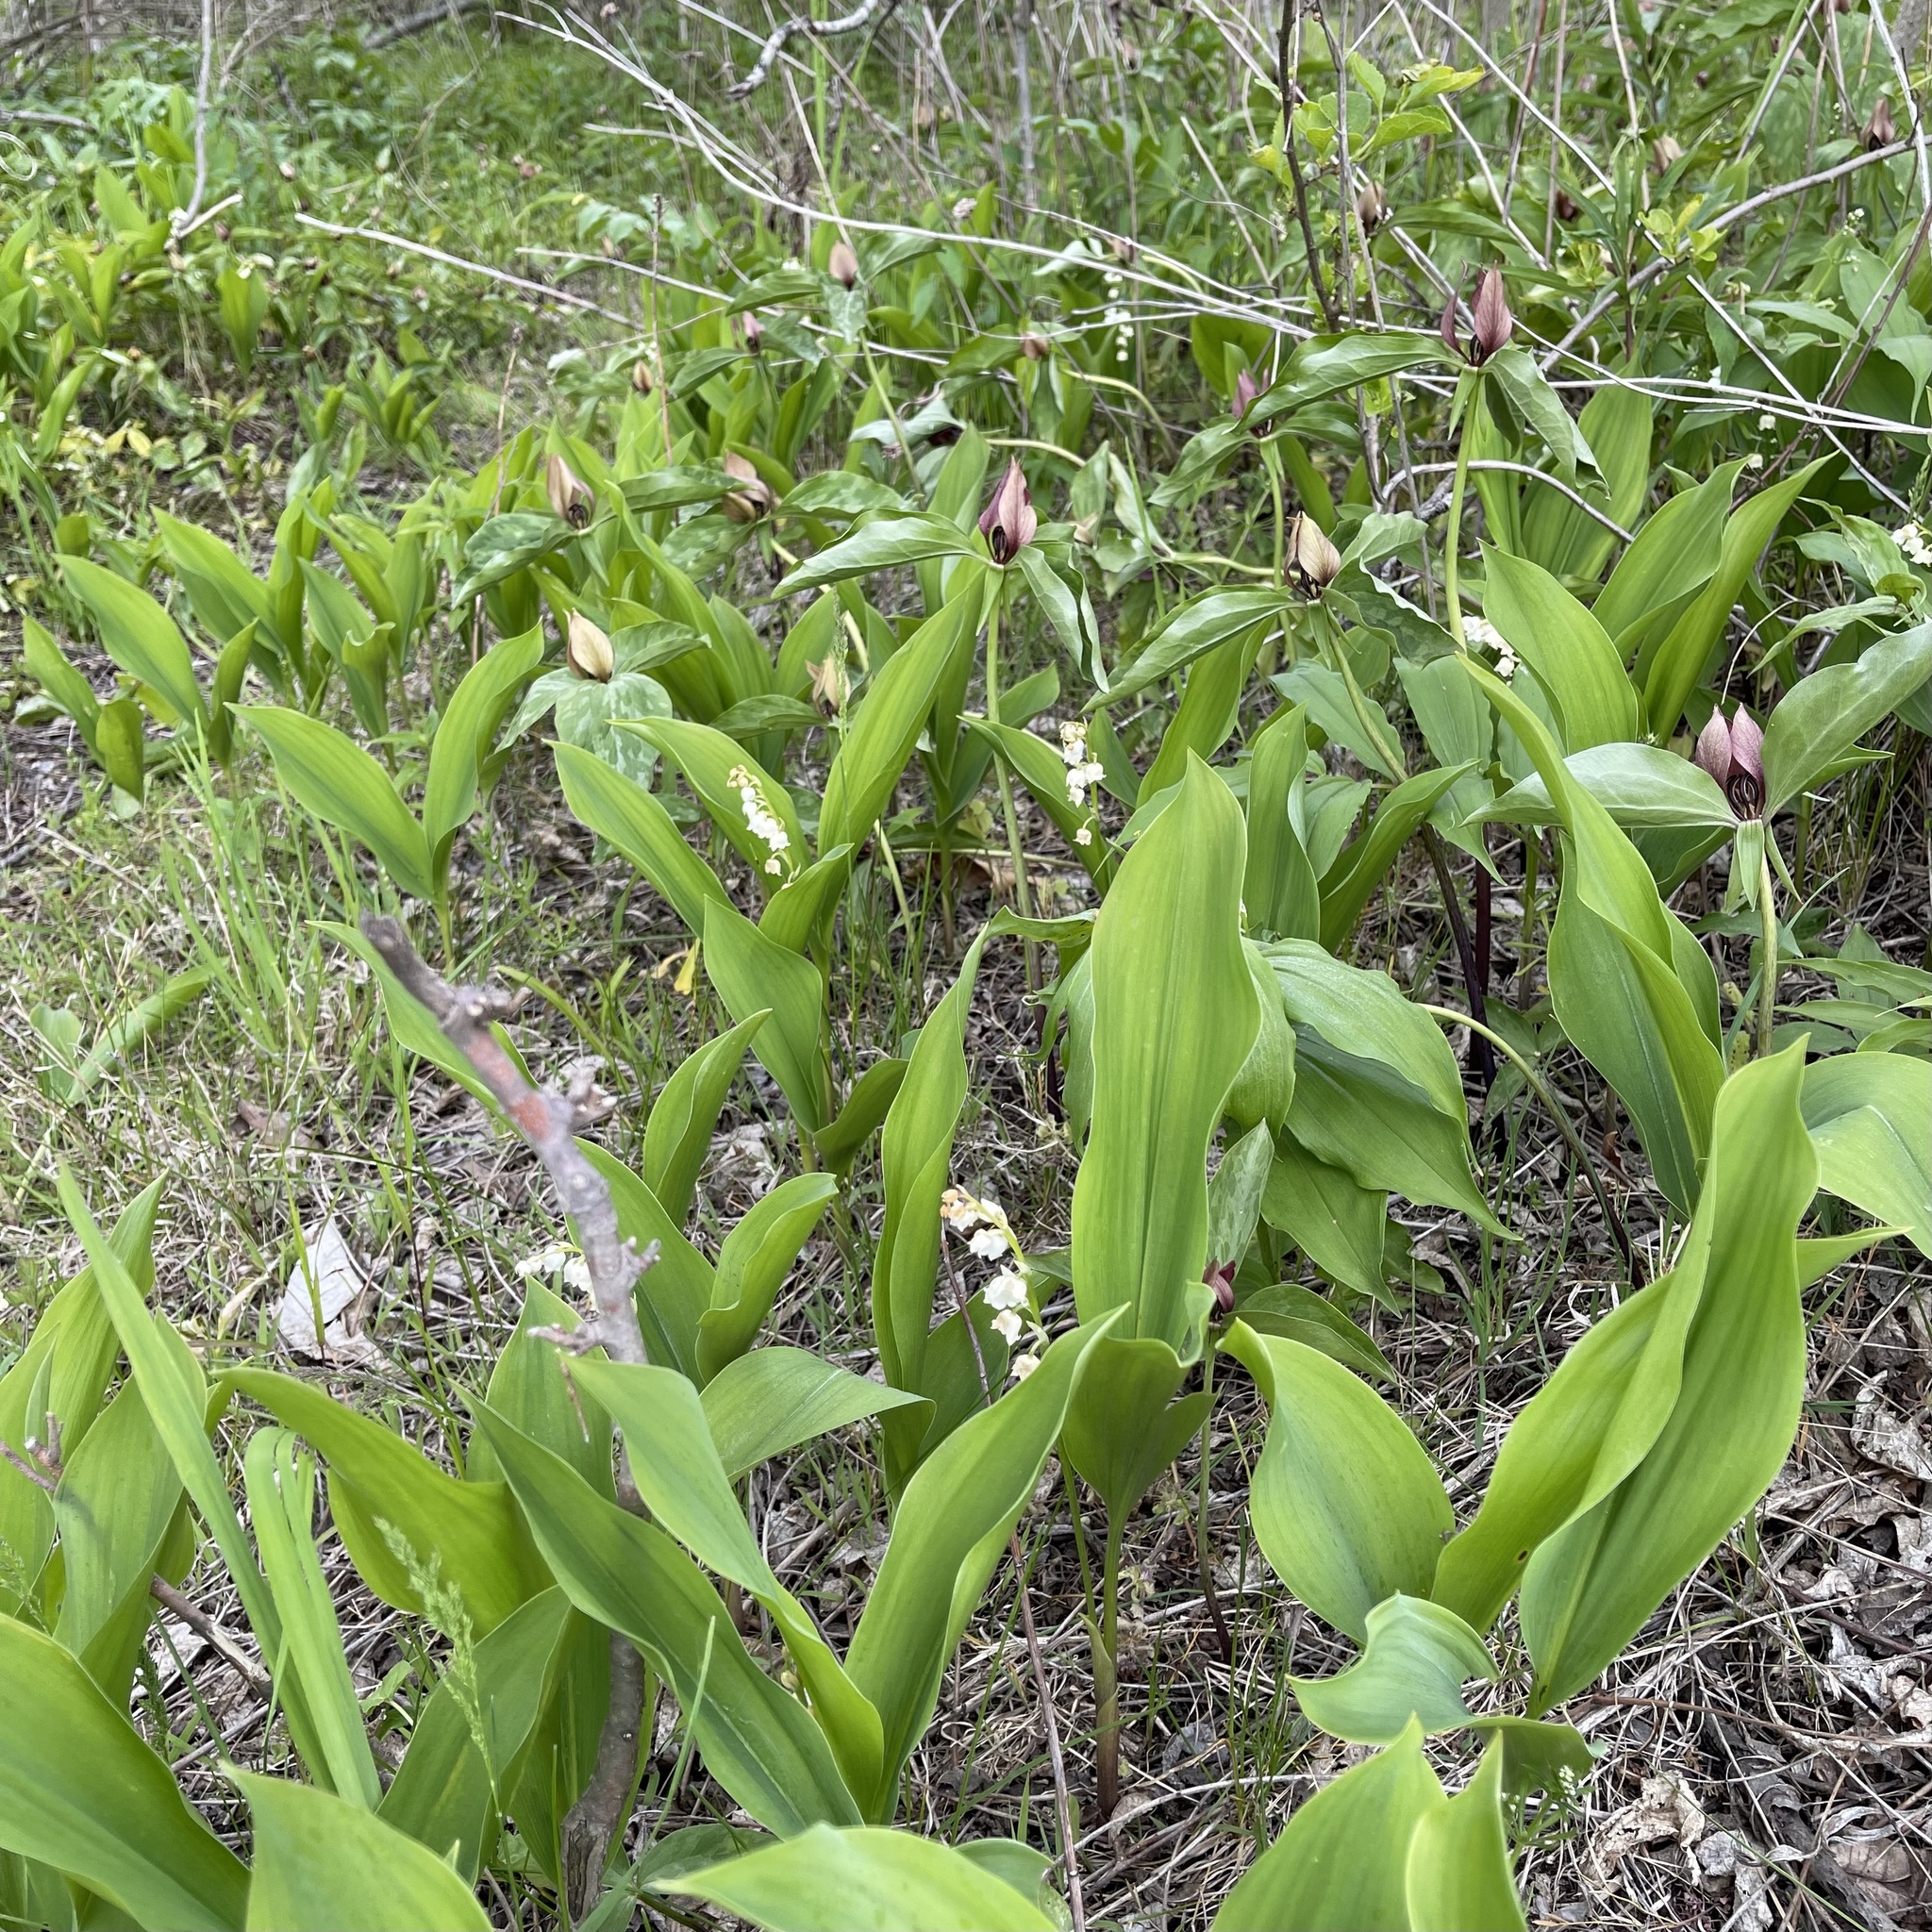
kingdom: Plantae
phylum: Tracheophyta
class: Liliopsida
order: Asparagales
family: Asparagaceae
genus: Convallaria
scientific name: Convallaria majalis
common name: Lily-of-the-valley
